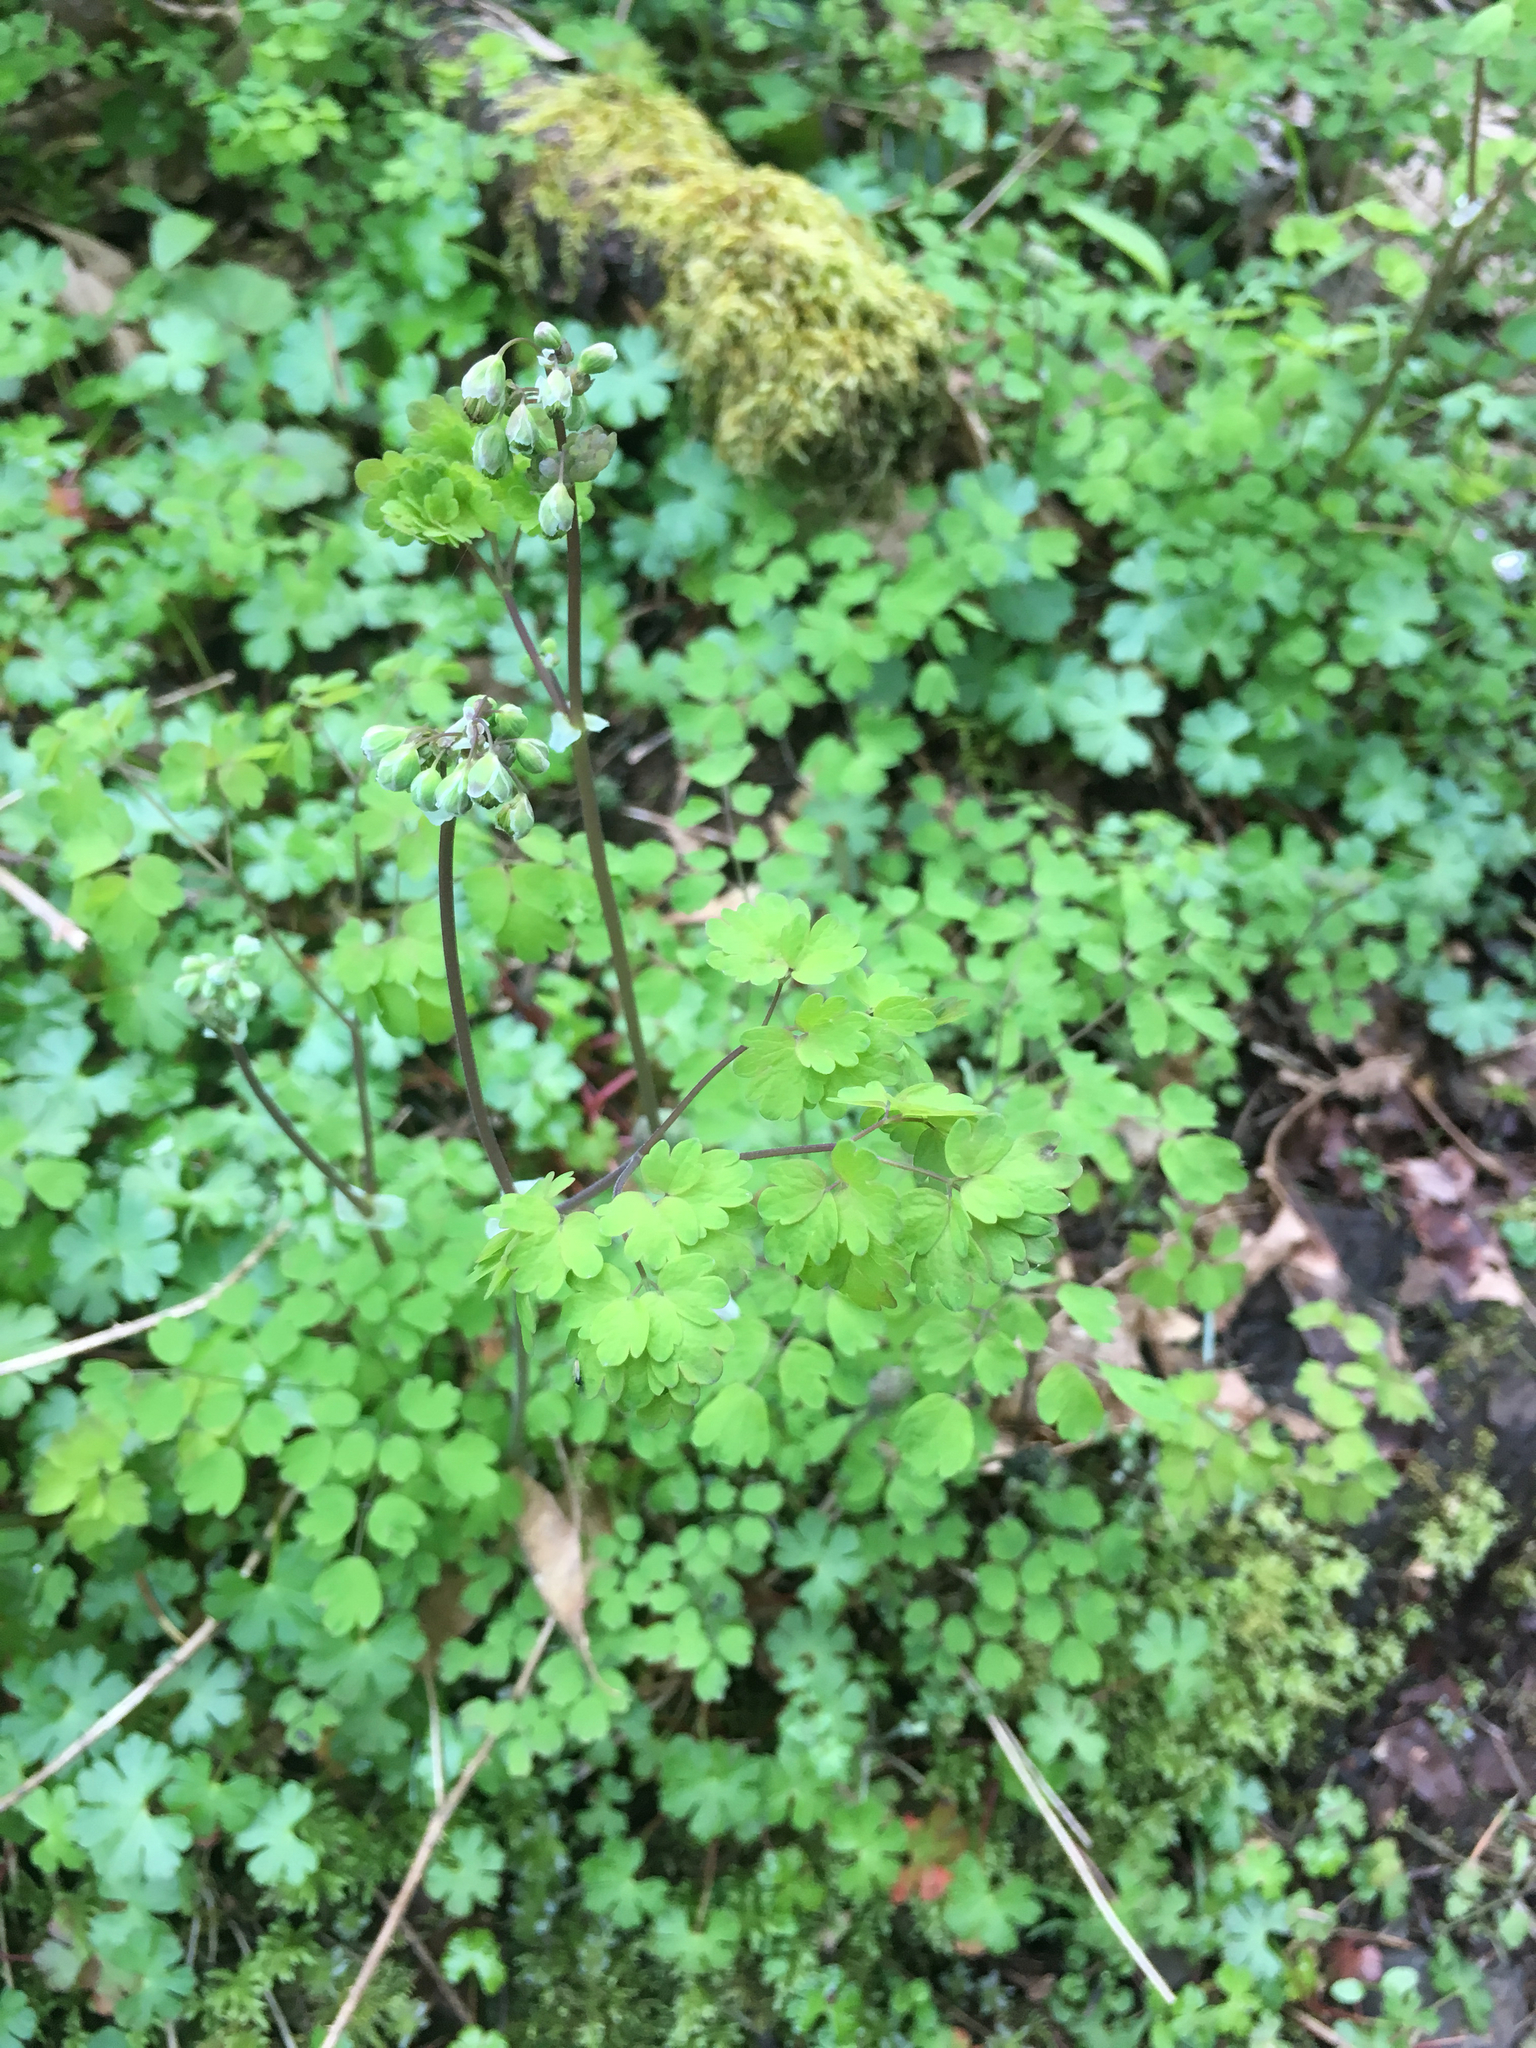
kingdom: Plantae
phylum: Tracheophyta
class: Magnoliopsida
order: Ranunculales
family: Ranunculaceae
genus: Thalictrum
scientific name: Thalictrum occidentale
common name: Western meadow-rue
